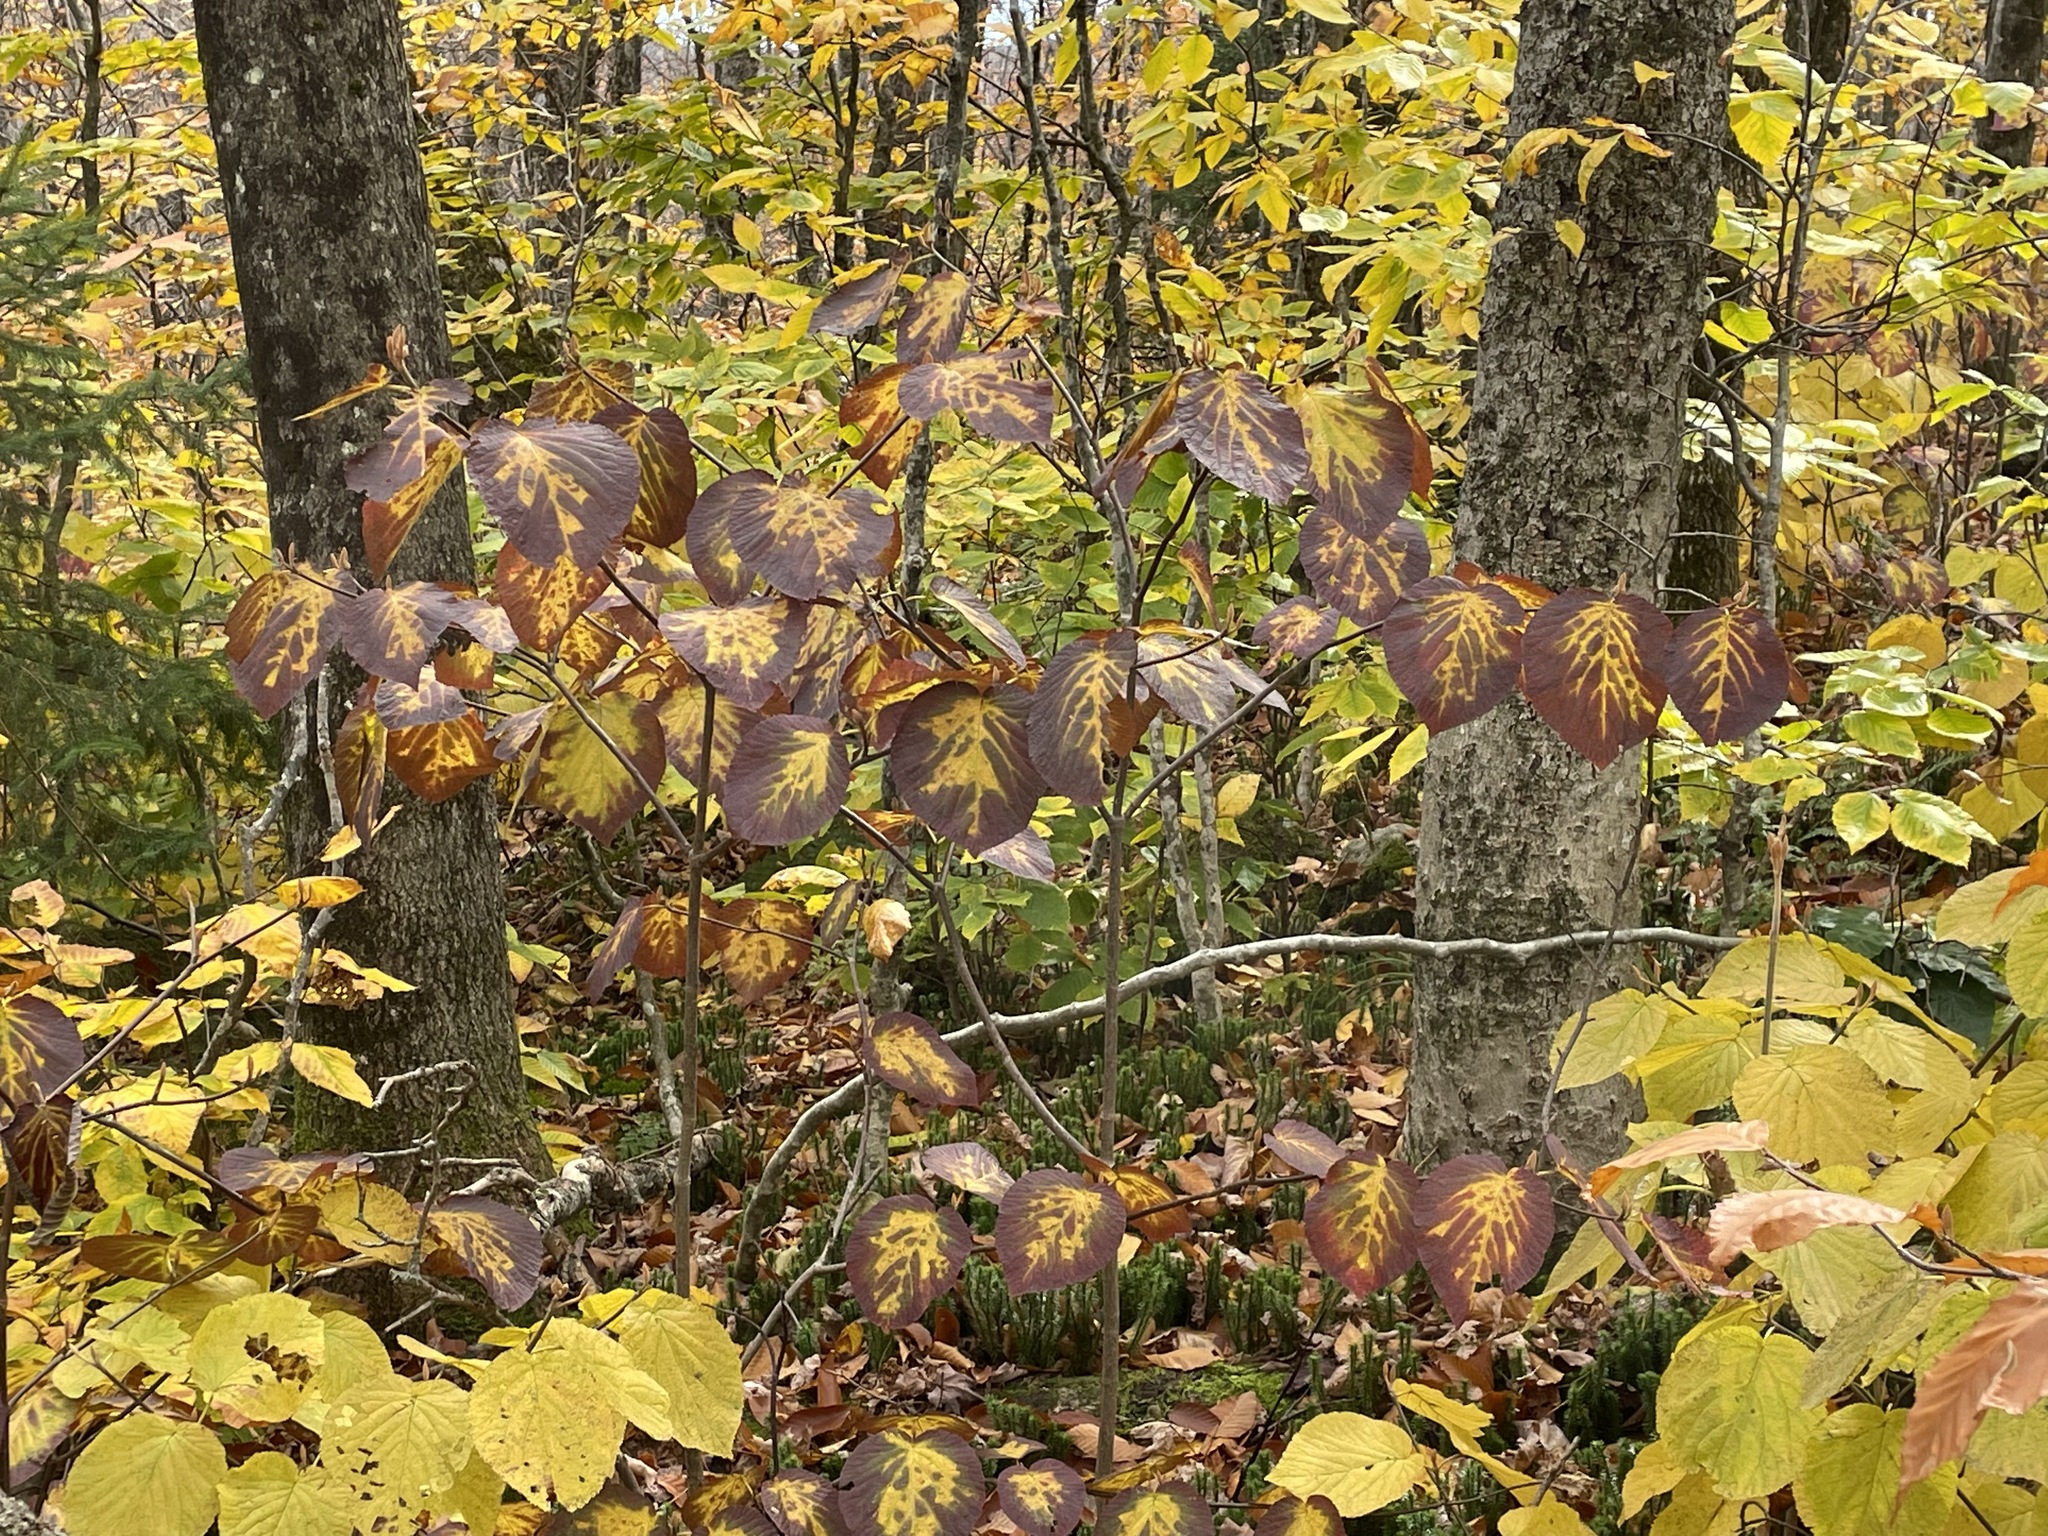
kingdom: Plantae
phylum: Tracheophyta
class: Magnoliopsida
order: Dipsacales
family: Viburnaceae
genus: Viburnum
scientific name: Viburnum lantanoides
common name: Hobblebush
